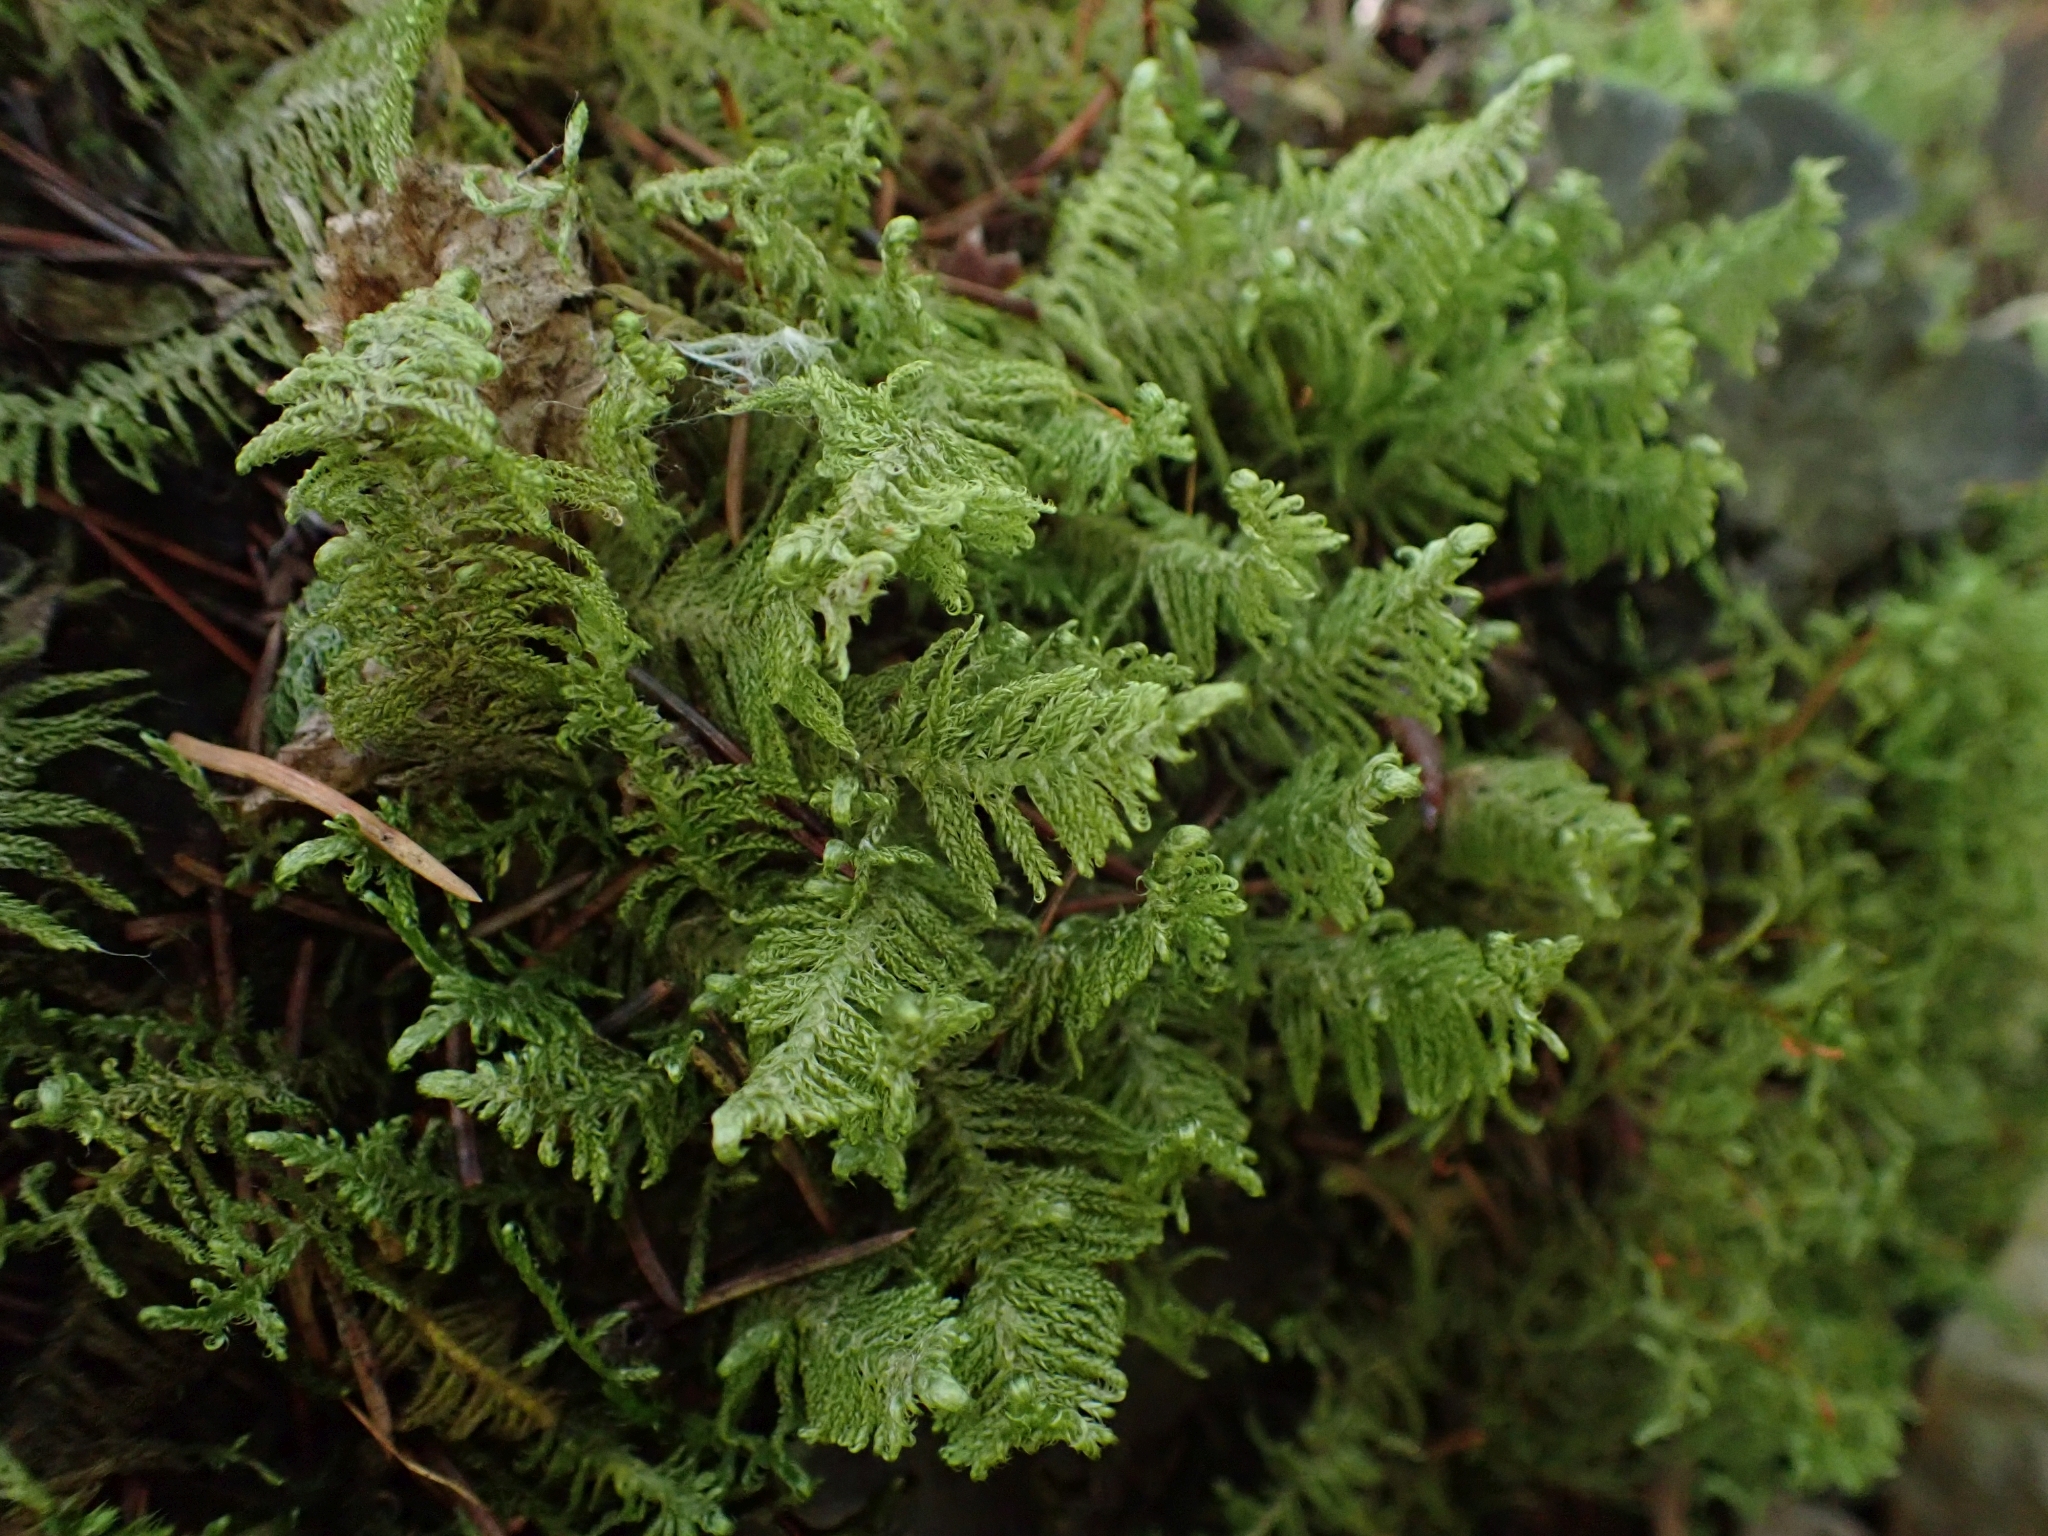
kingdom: Plantae
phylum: Bryophyta
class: Bryopsida
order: Hypnales
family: Pylaisiaceae
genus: Ptilium
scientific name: Ptilium crista-castrensis
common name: Knight's plume moss
